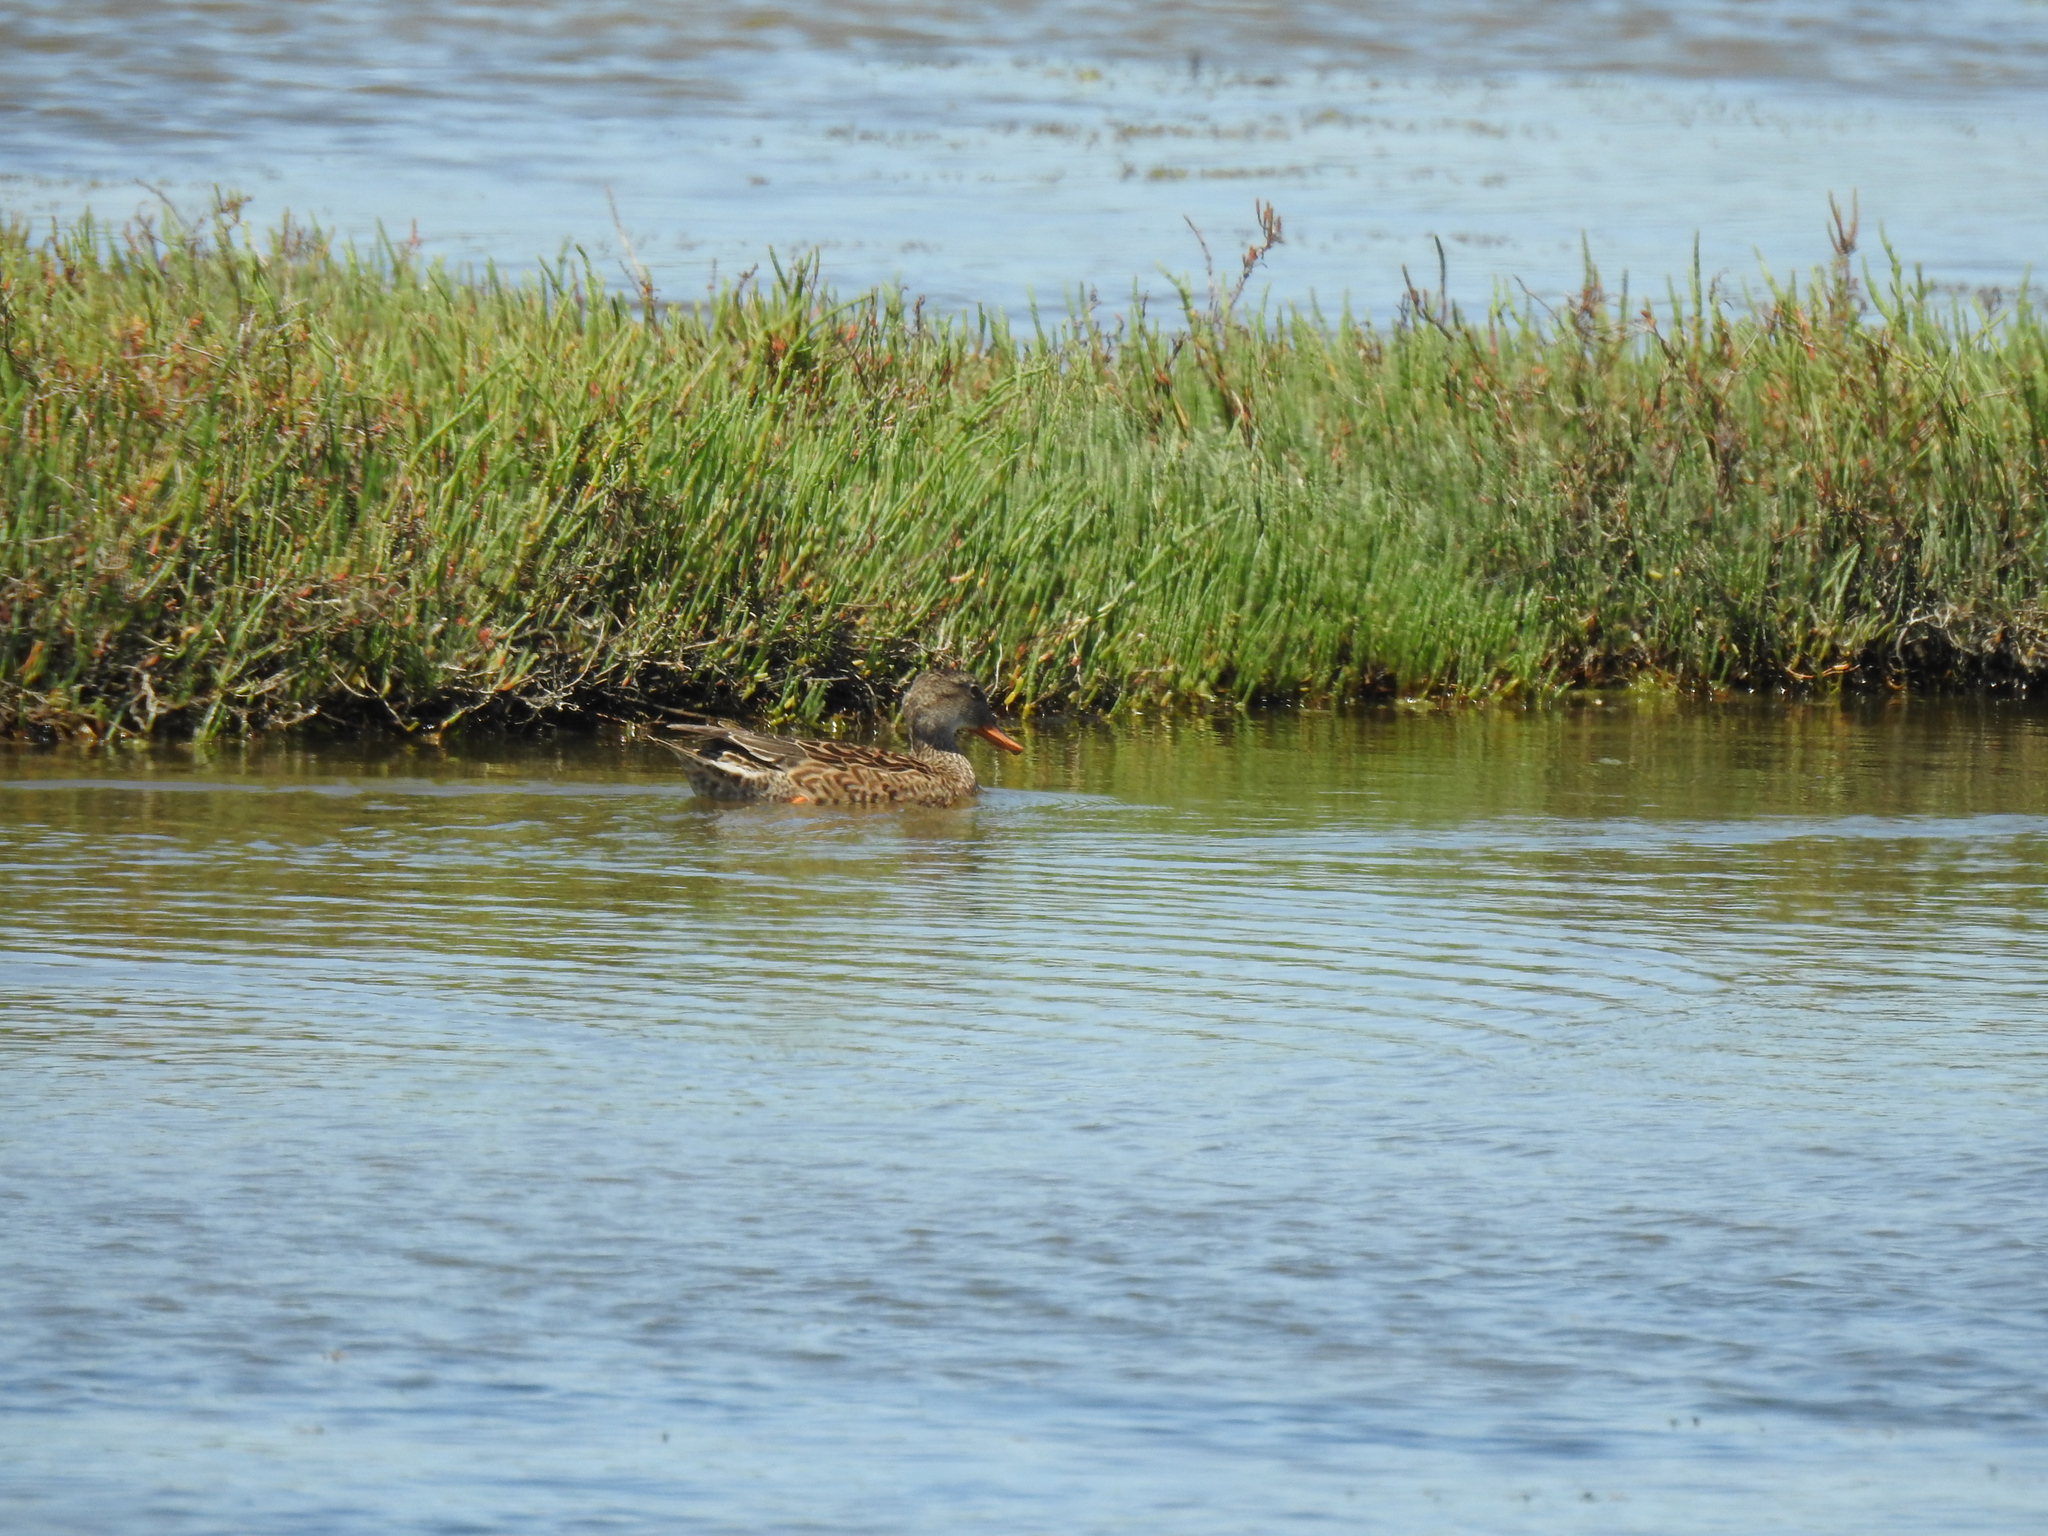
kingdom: Animalia
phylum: Chordata
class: Aves
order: Anseriformes
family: Anatidae
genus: Mareca
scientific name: Mareca strepera
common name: Gadwall
